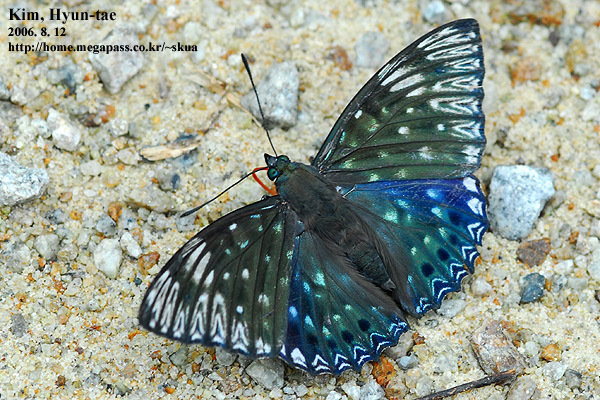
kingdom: Animalia
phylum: Arthropoda
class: Insecta
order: Lepidoptera
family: Nymphalidae
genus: Dichorragia
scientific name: Dichorragia nesimachus
